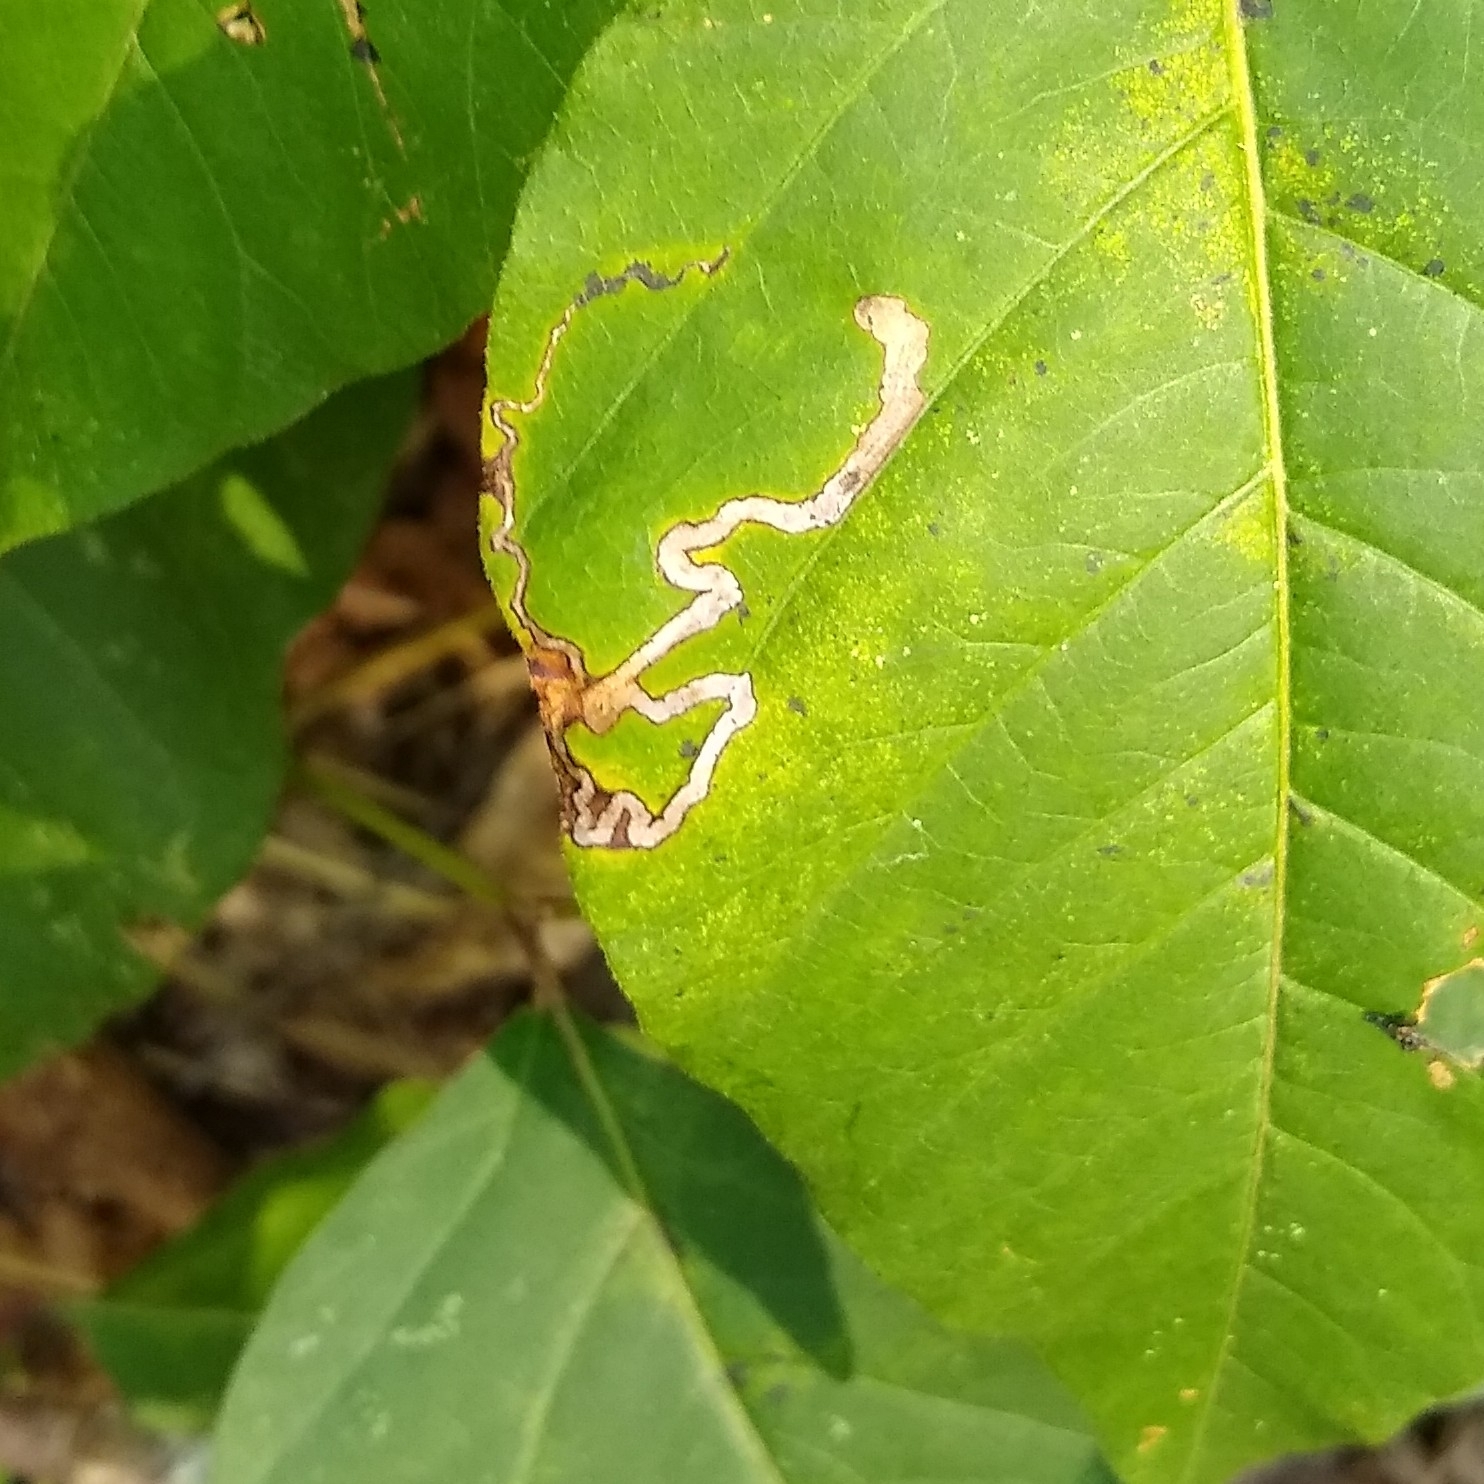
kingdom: Animalia
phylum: Arthropoda
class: Insecta
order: Lepidoptera
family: Nepticulidae
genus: Stigmella
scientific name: Stigmella rhoifoliella
